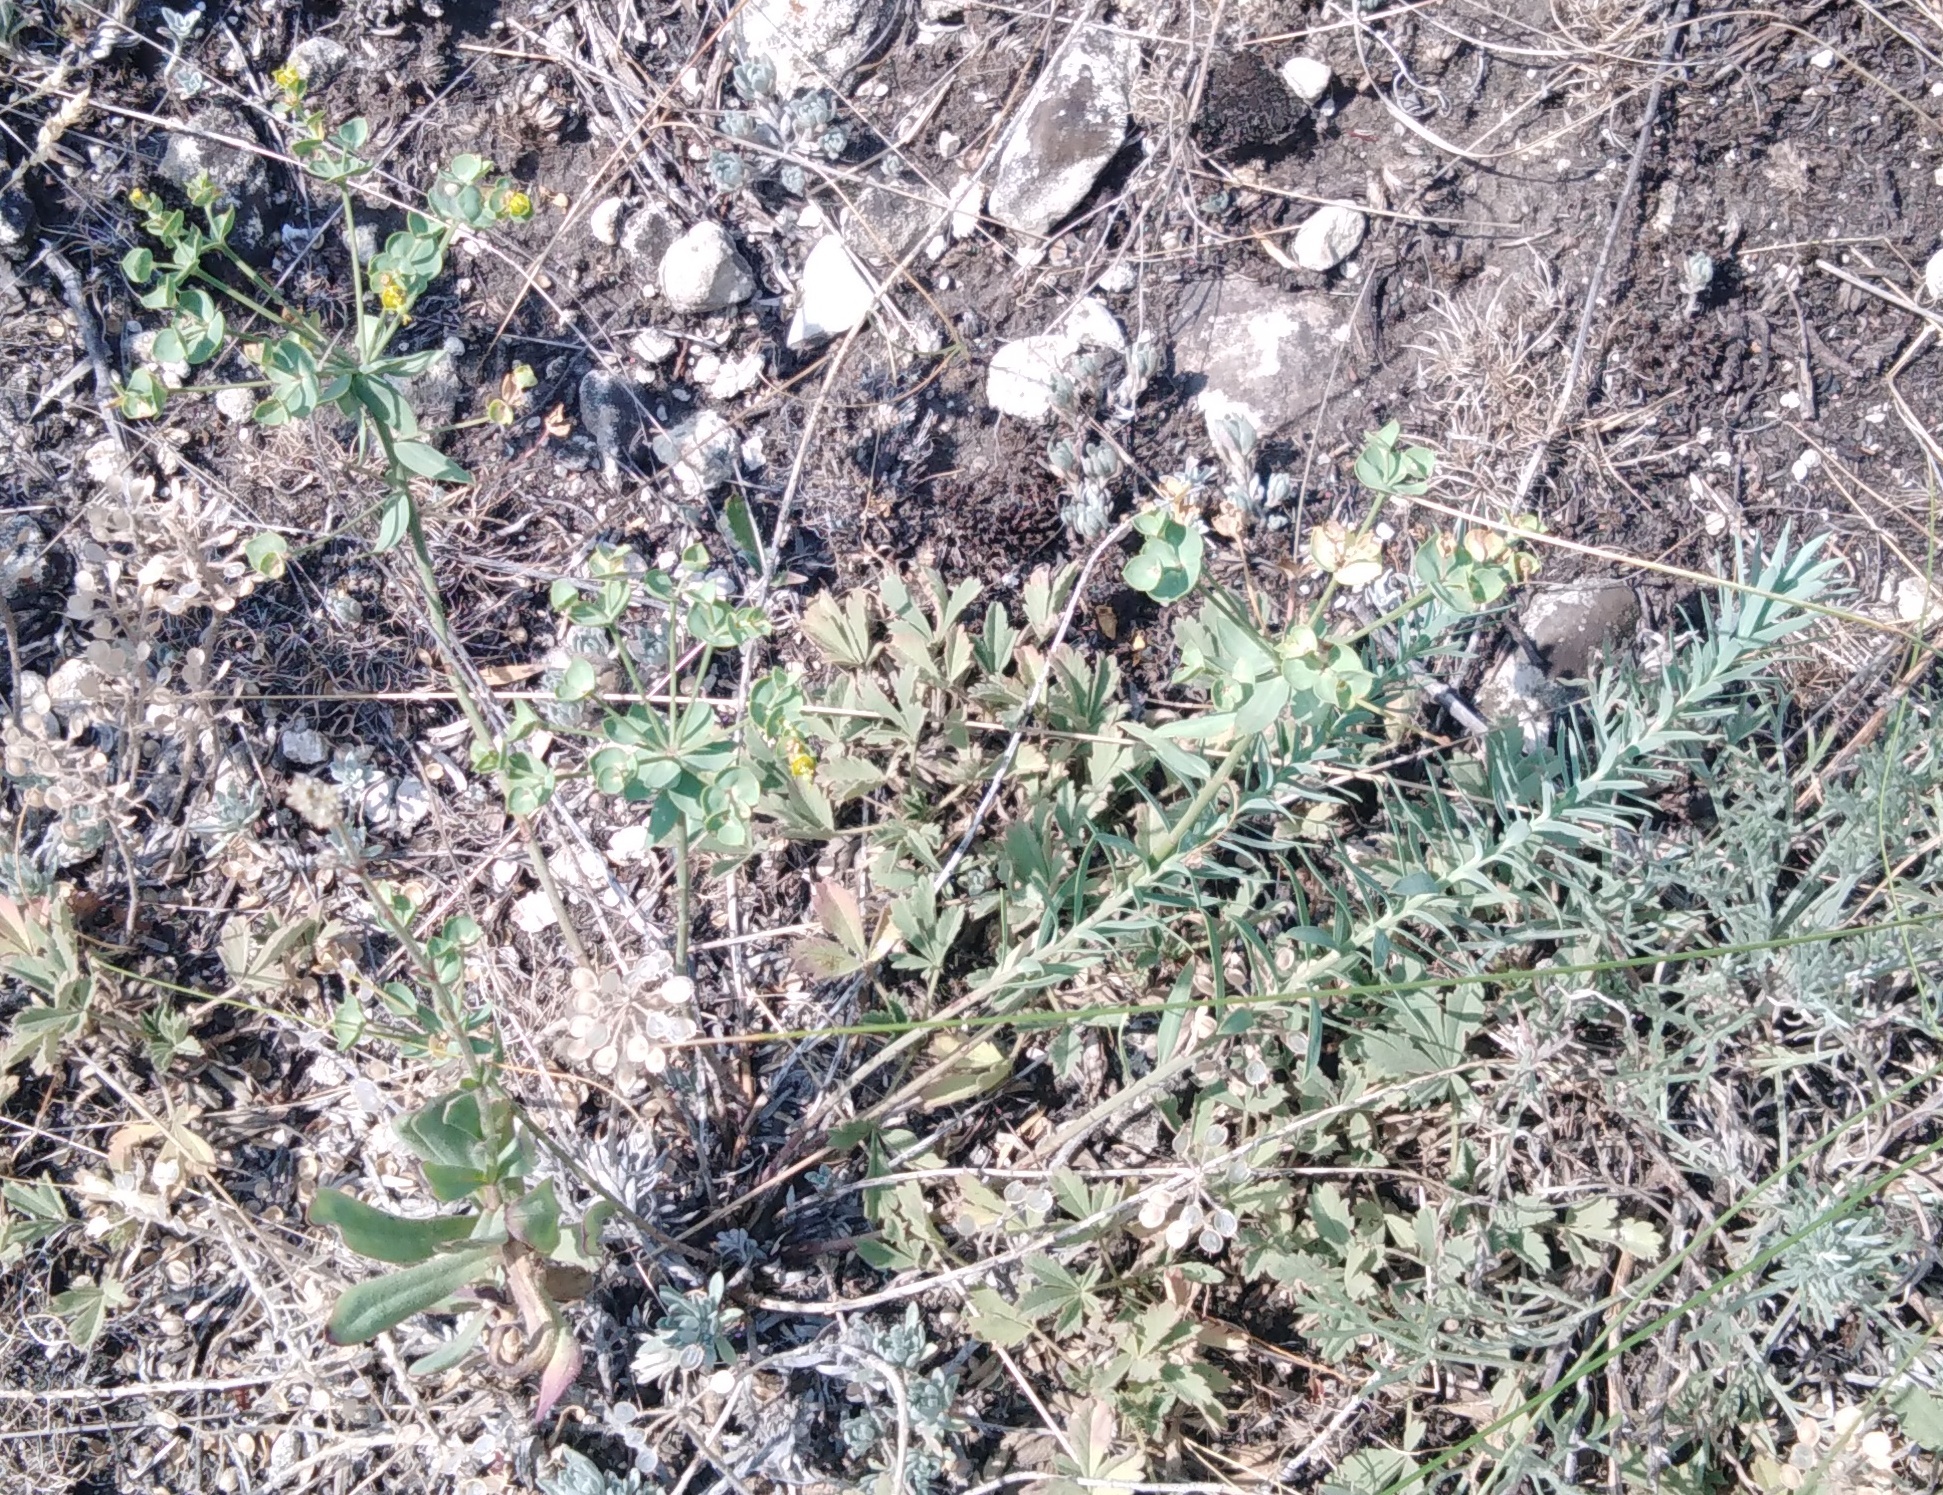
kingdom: Plantae
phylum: Tracheophyta
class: Magnoliopsida
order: Malpighiales
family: Euphorbiaceae
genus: Euphorbia
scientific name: Euphorbia seguieriana
